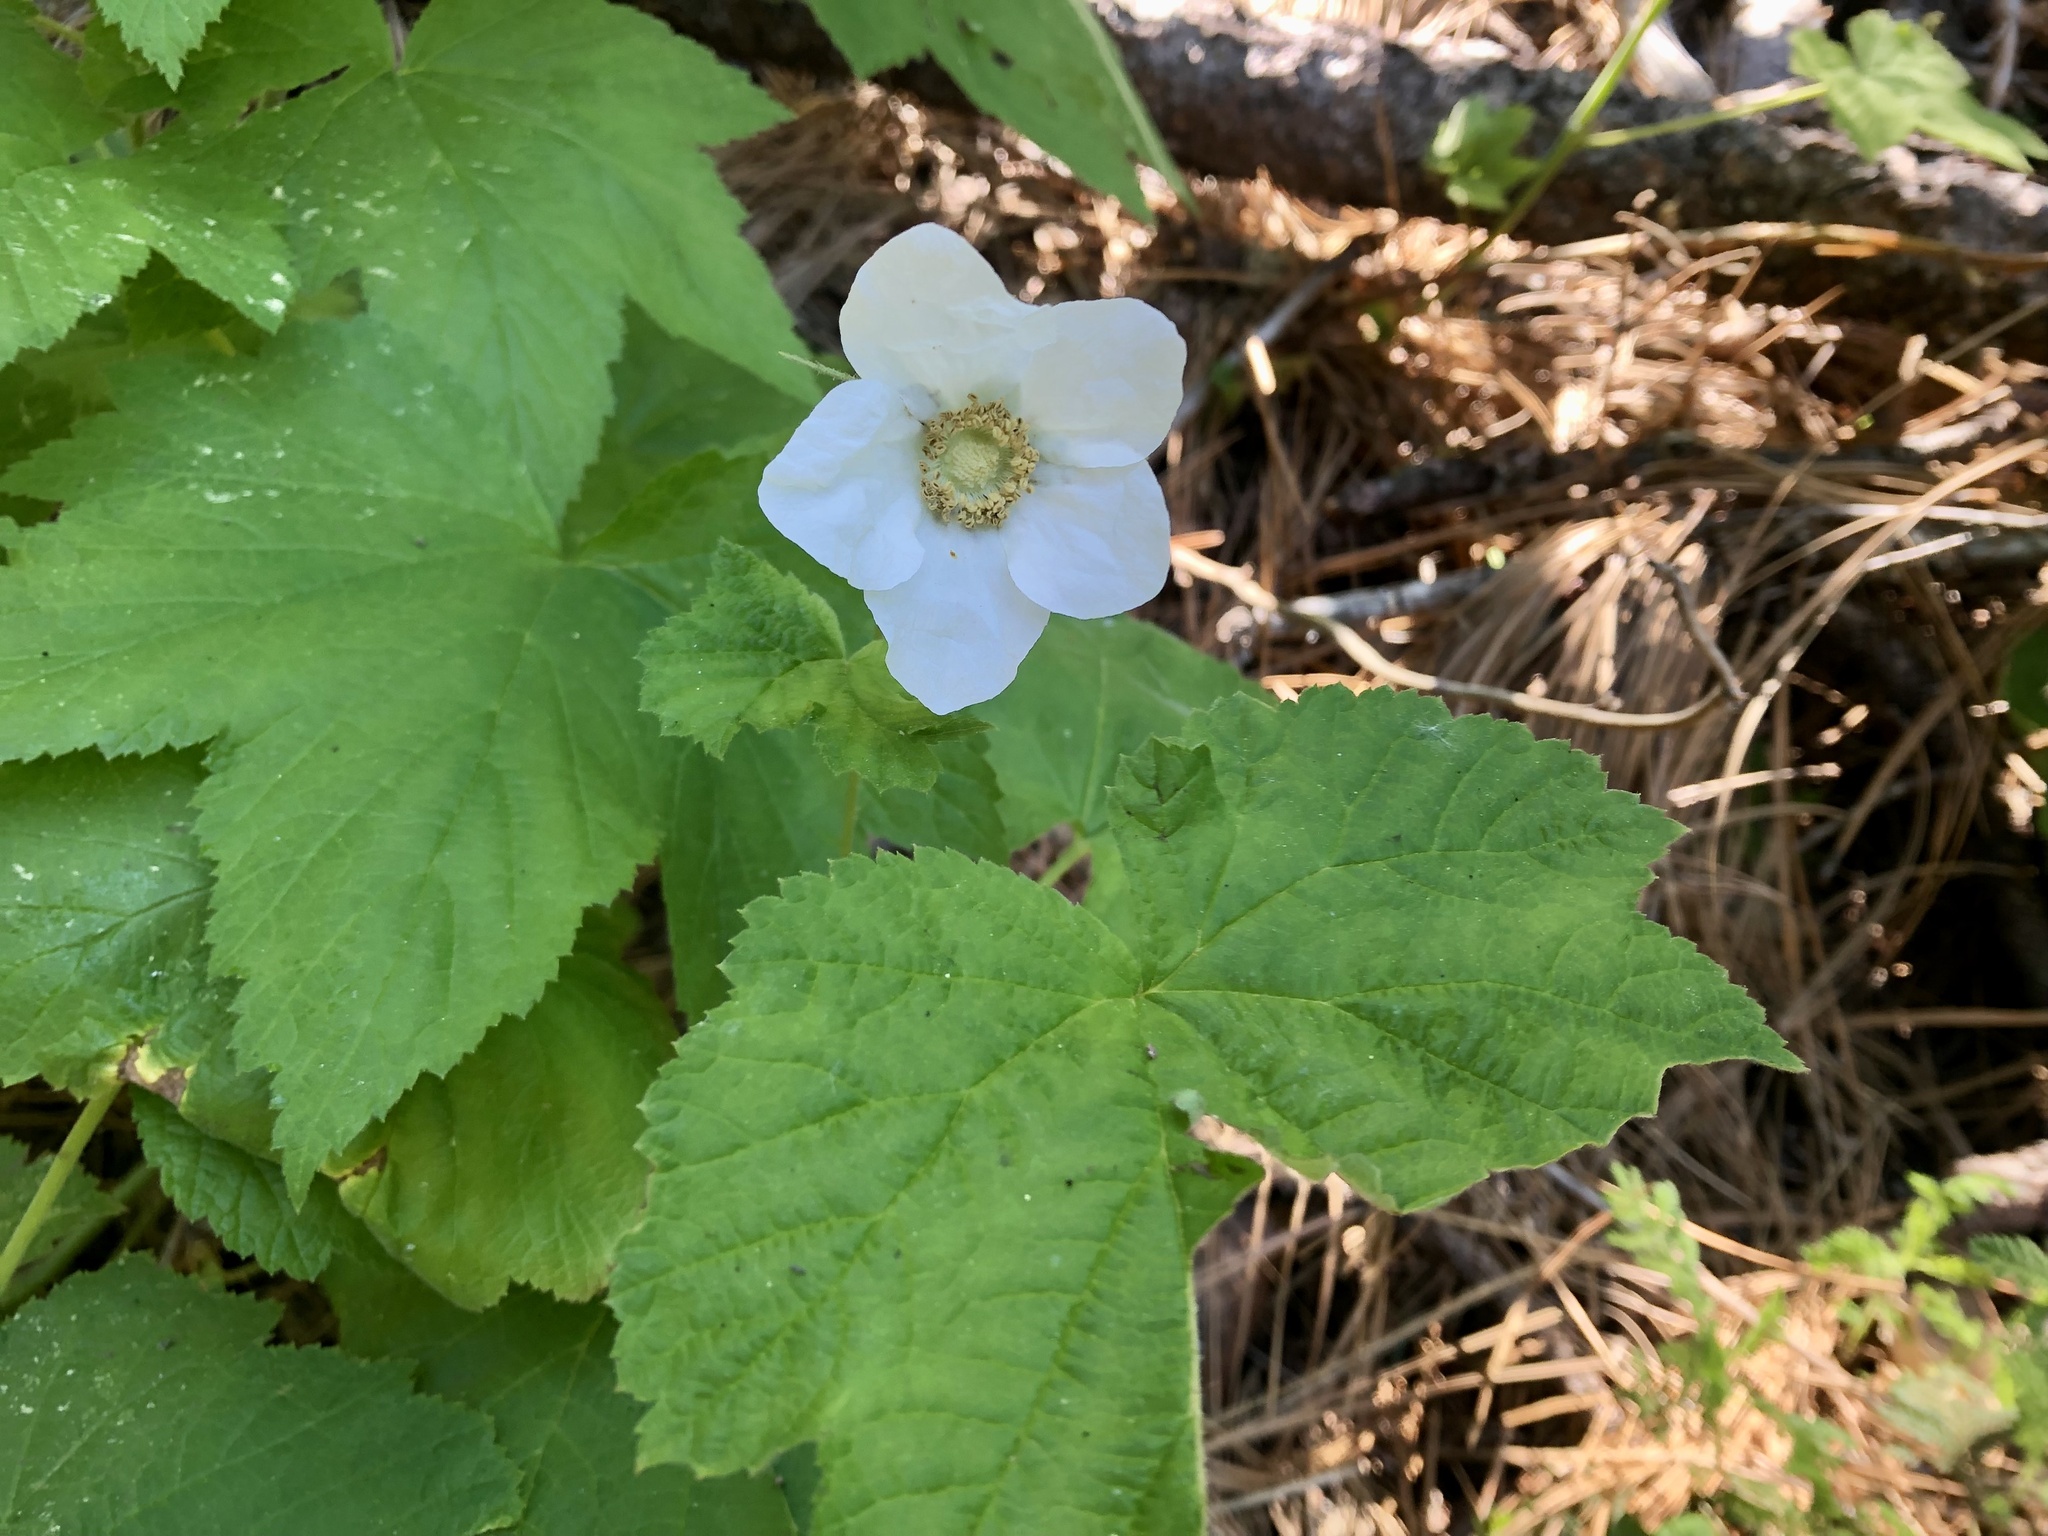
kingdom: Plantae
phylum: Tracheophyta
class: Magnoliopsida
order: Rosales
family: Rosaceae
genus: Rubus
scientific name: Rubus parviflorus
